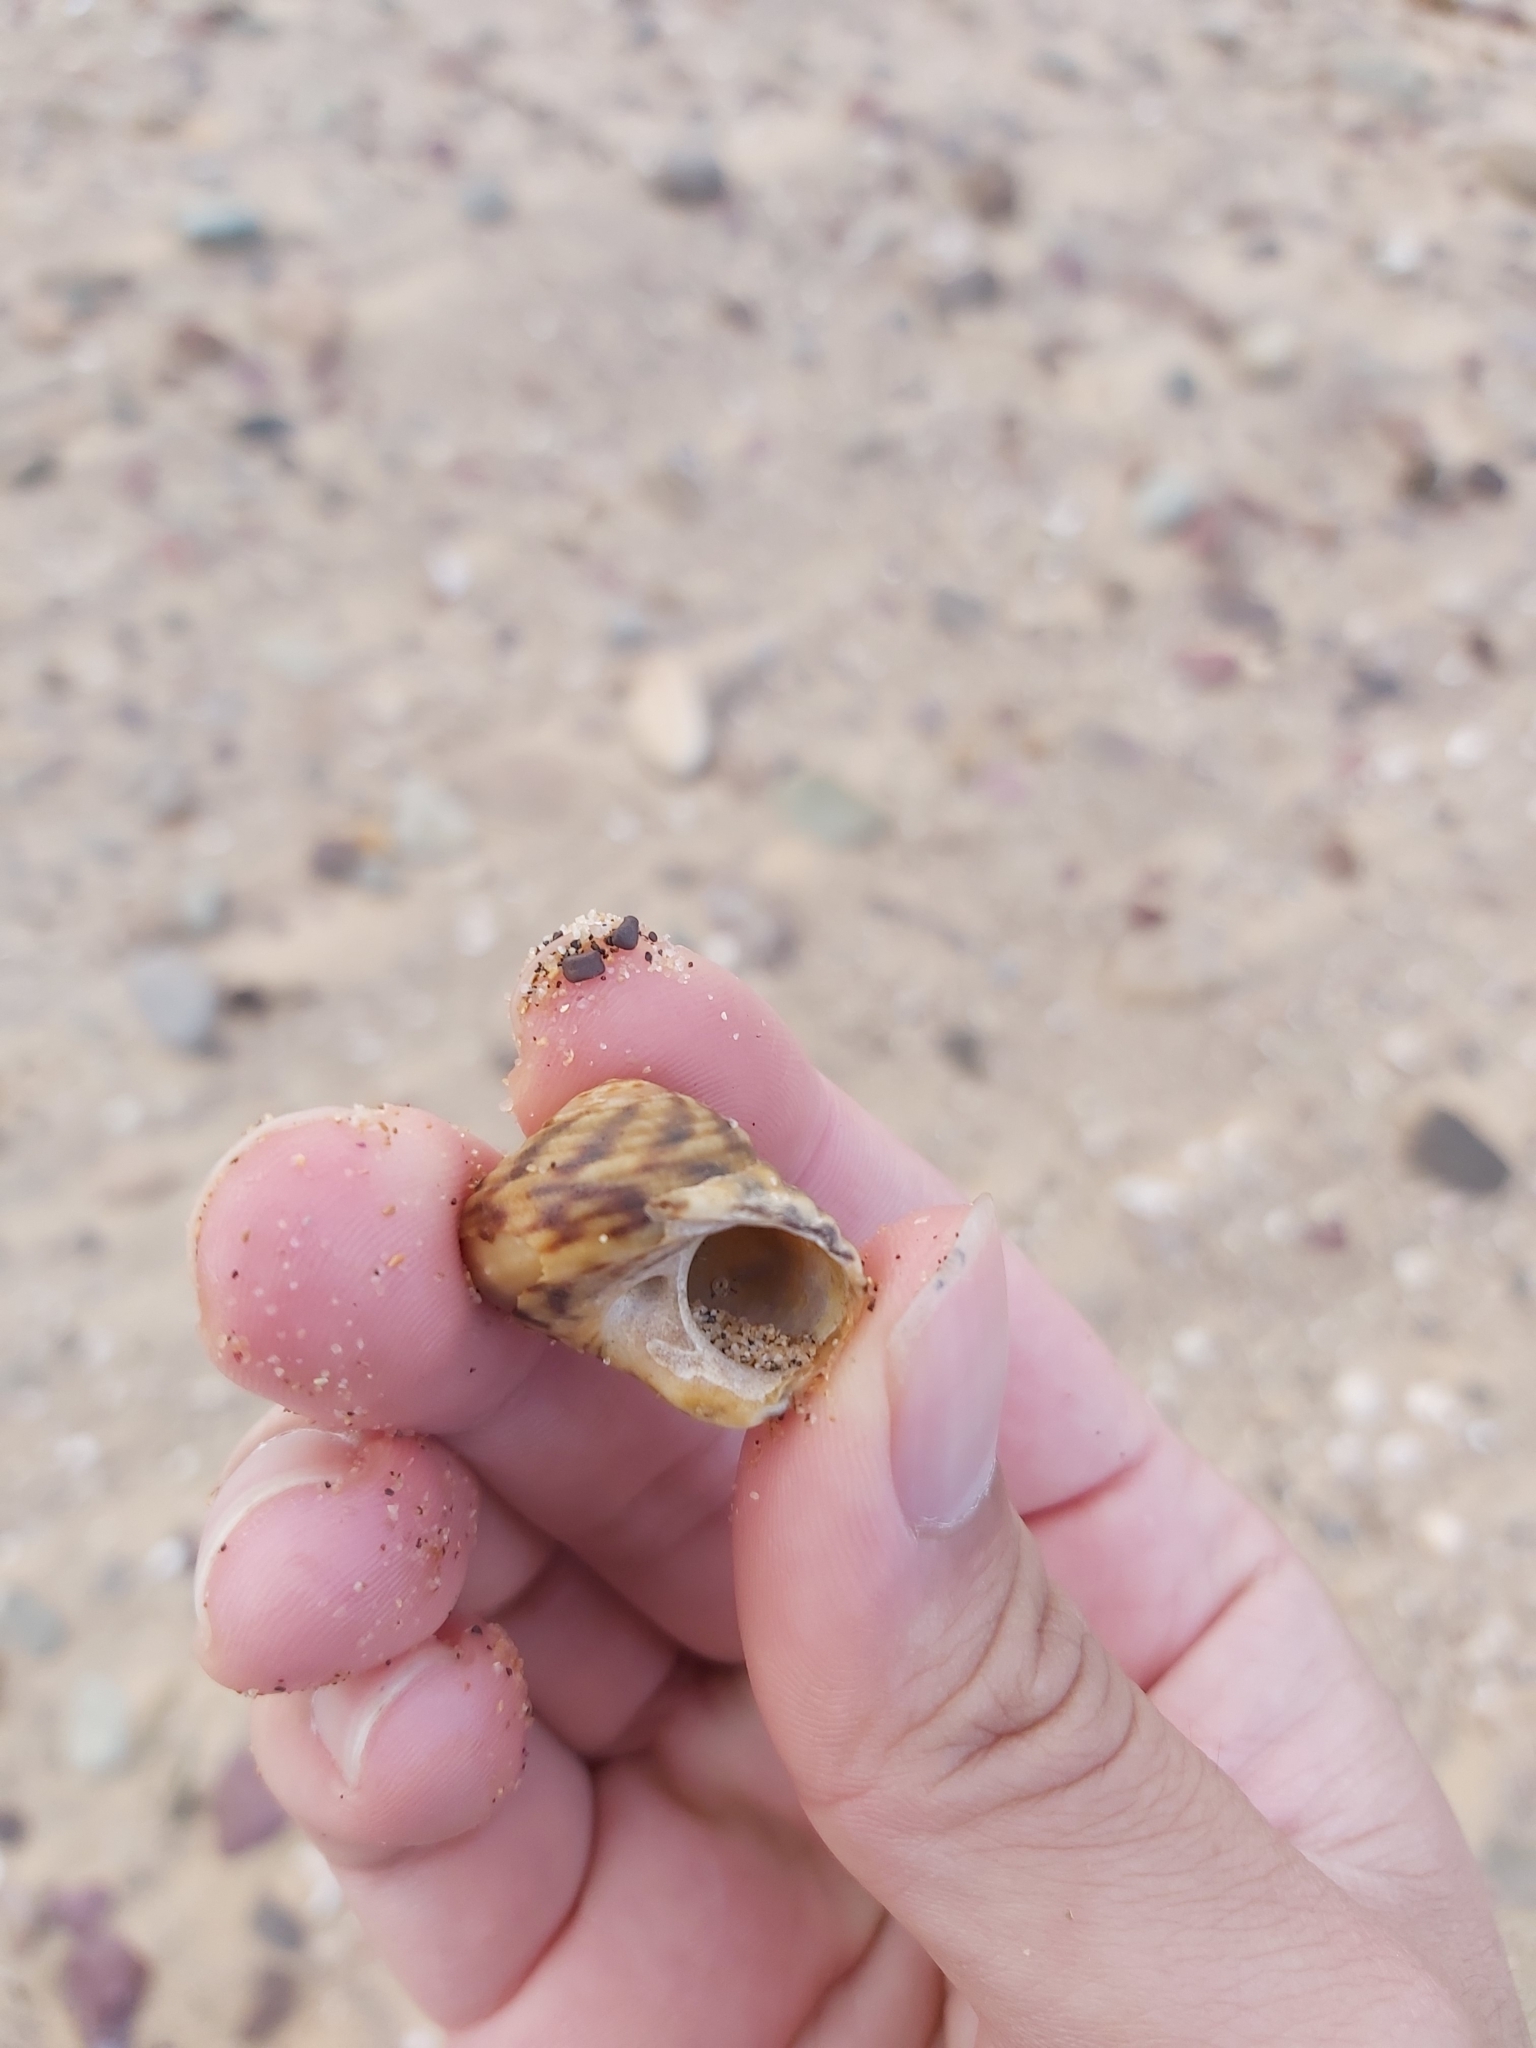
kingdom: Animalia
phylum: Mollusca
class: Gastropoda
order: Trochida
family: Turbinidae
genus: Lunella
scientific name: Lunella undulata
